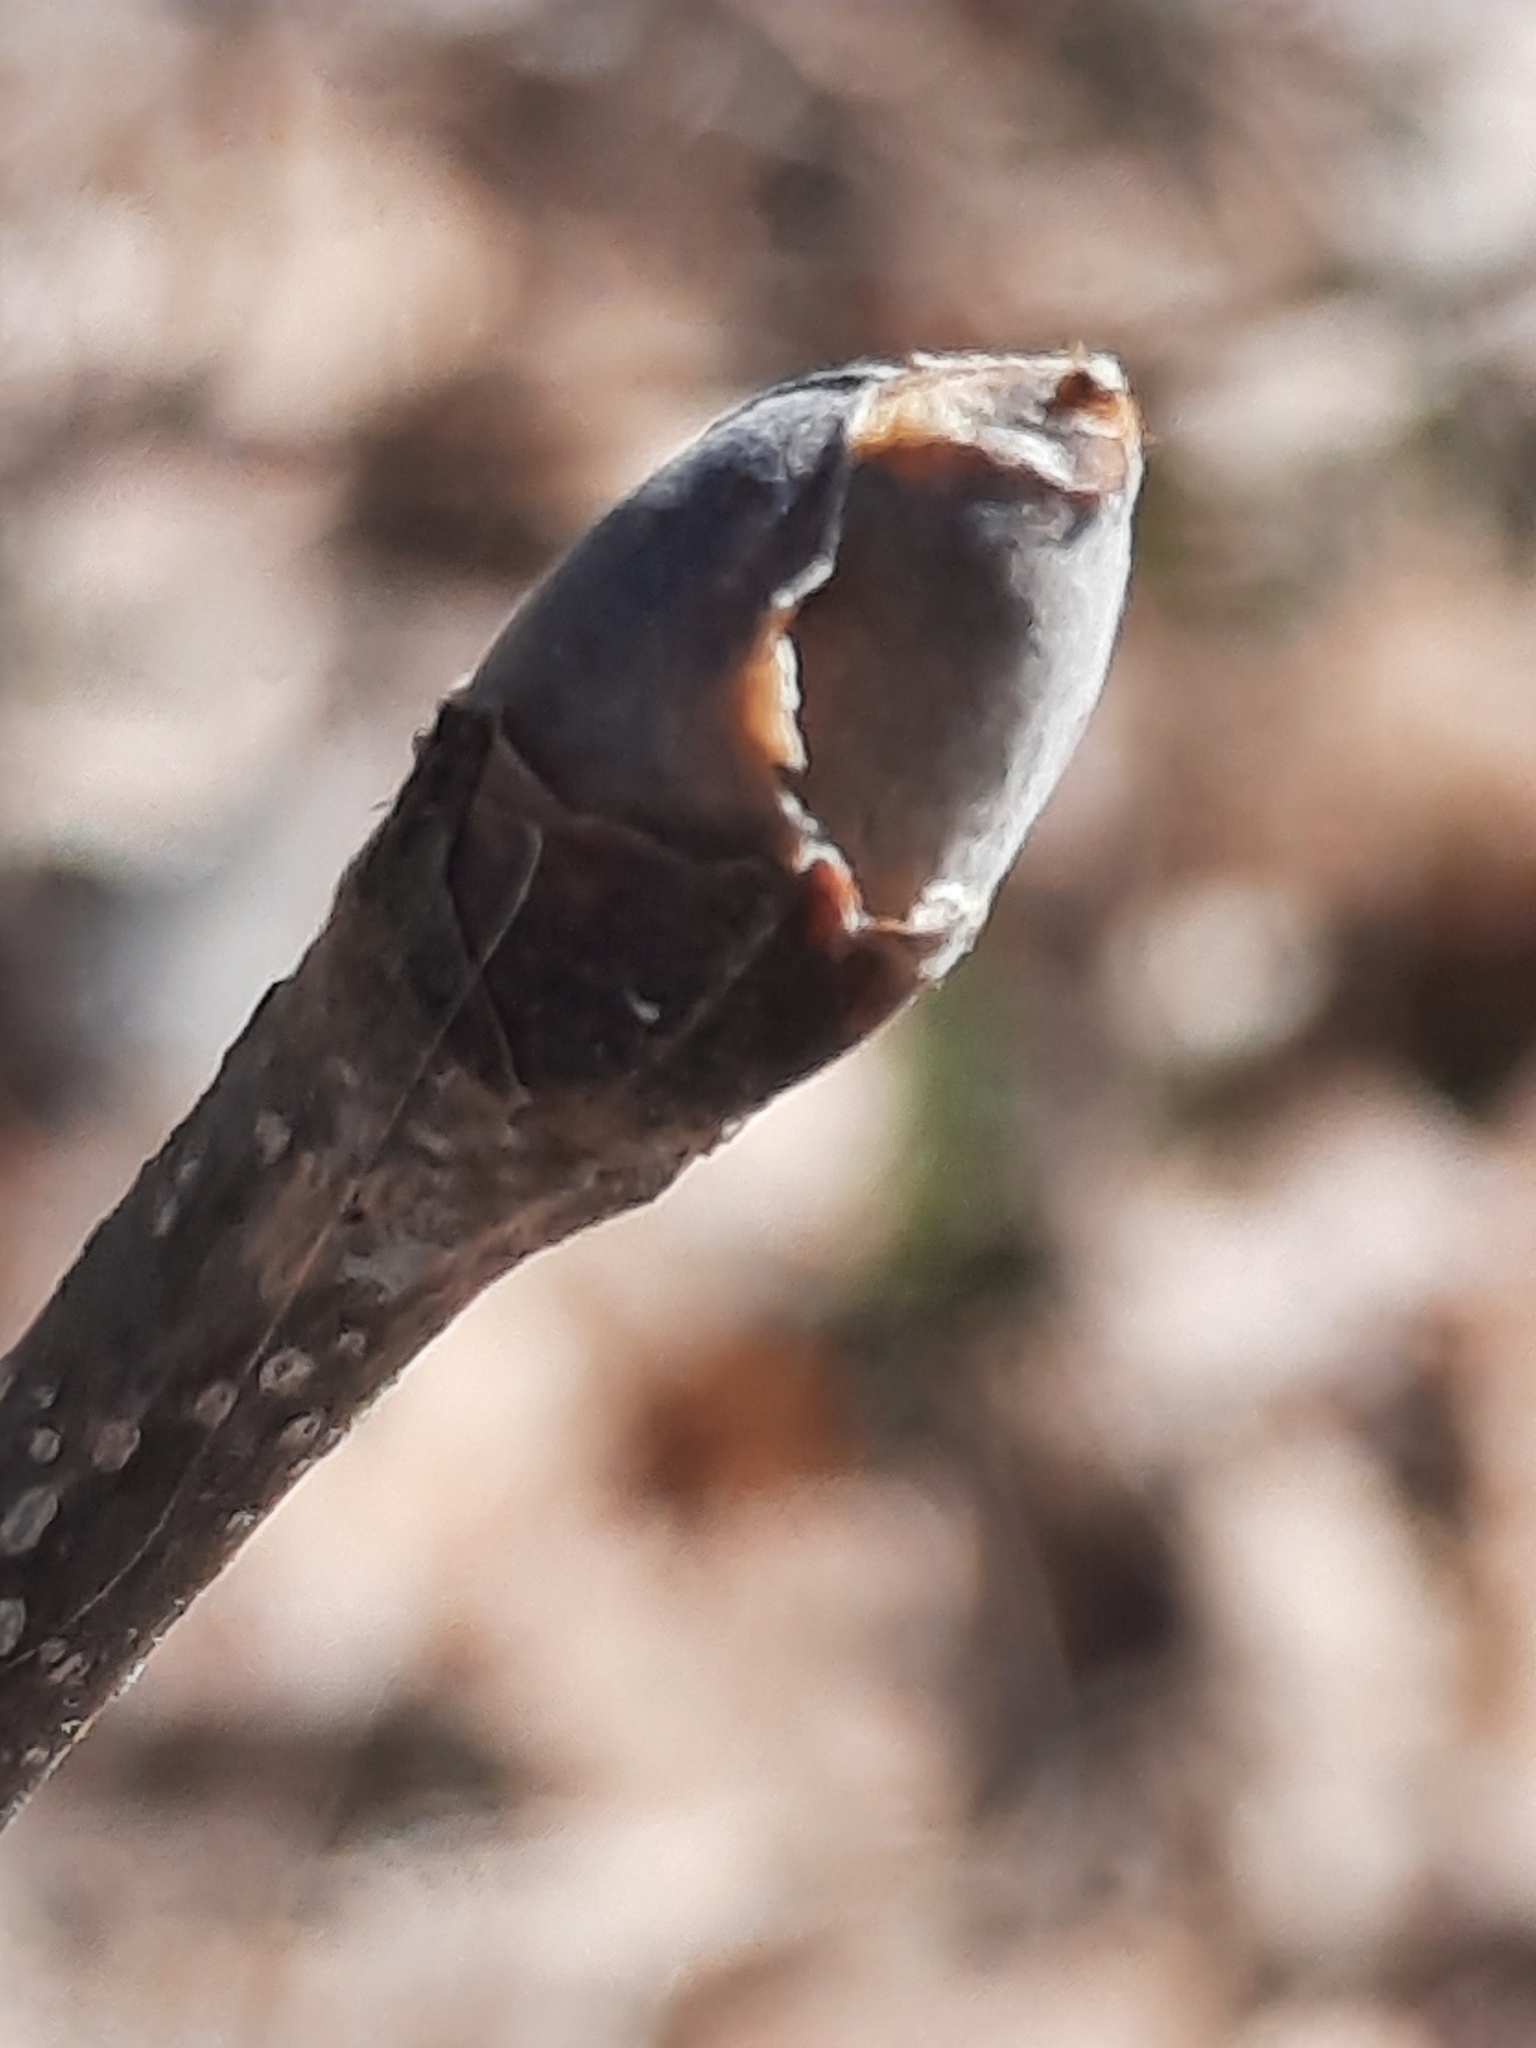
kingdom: Plantae
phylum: Tracheophyta
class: Magnoliopsida
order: Fagales
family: Juglandaceae
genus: Carya
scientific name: Carya ovata
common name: Shagbark hickory
